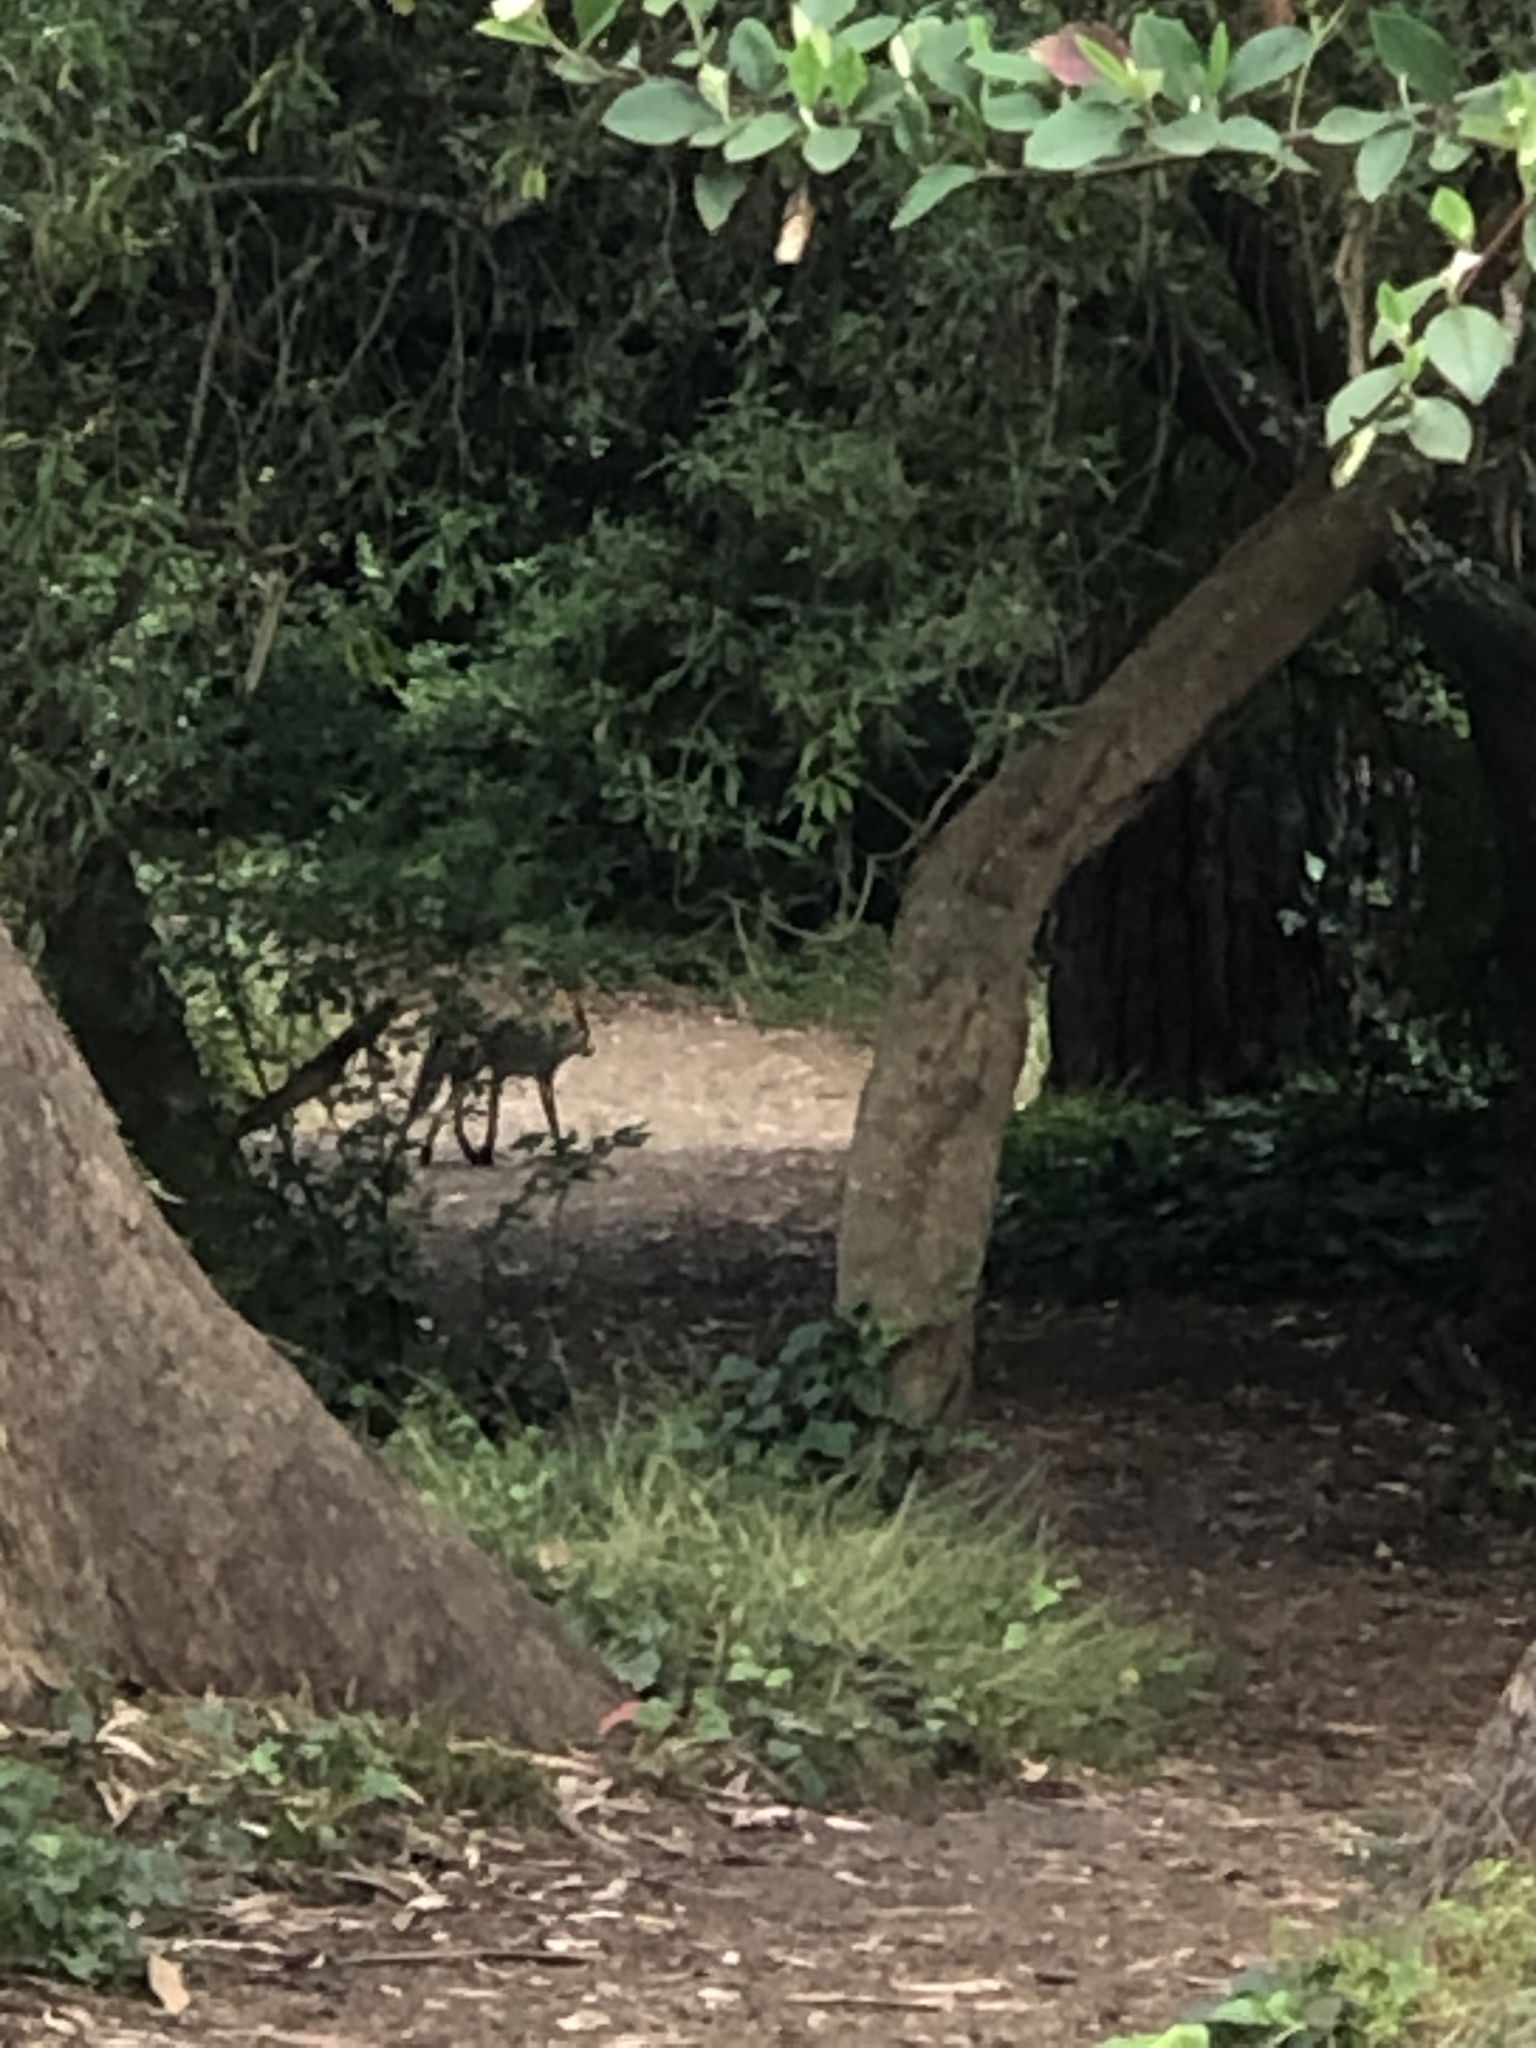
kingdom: Animalia
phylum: Chordata
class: Mammalia
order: Carnivora
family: Canidae
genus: Canis
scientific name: Canis latrans
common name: Coyote
